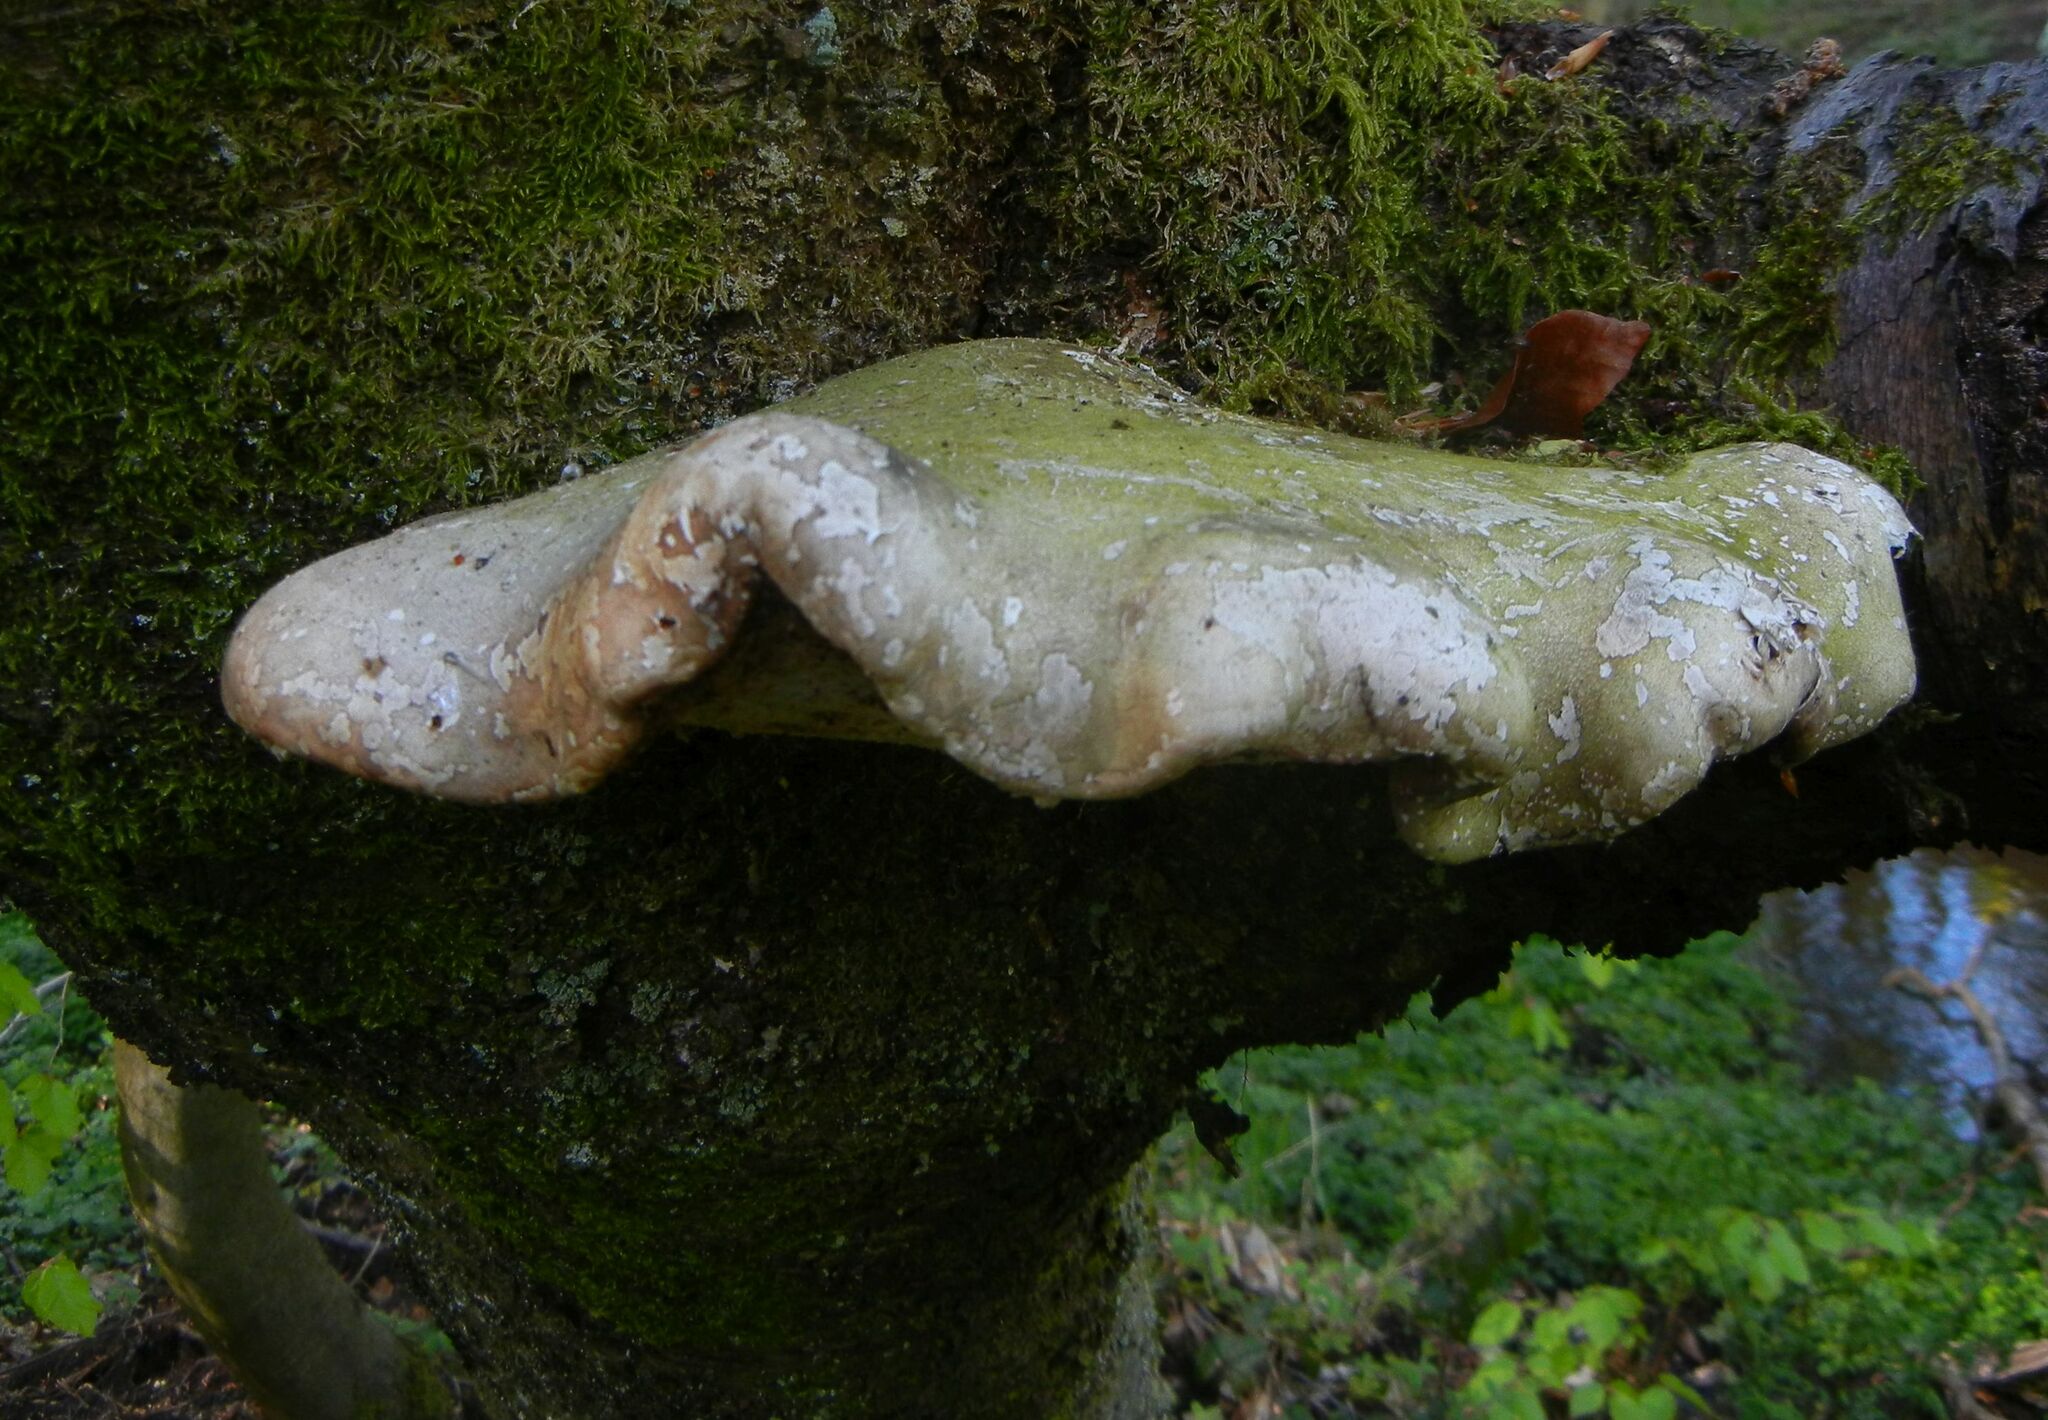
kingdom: Fungi
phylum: Basidiomycota
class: Agaricomycetes
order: Polyporales
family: Fomitopsidaceae
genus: Fomitopsis
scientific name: Fomitopsis betulina
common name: Birch polypore
